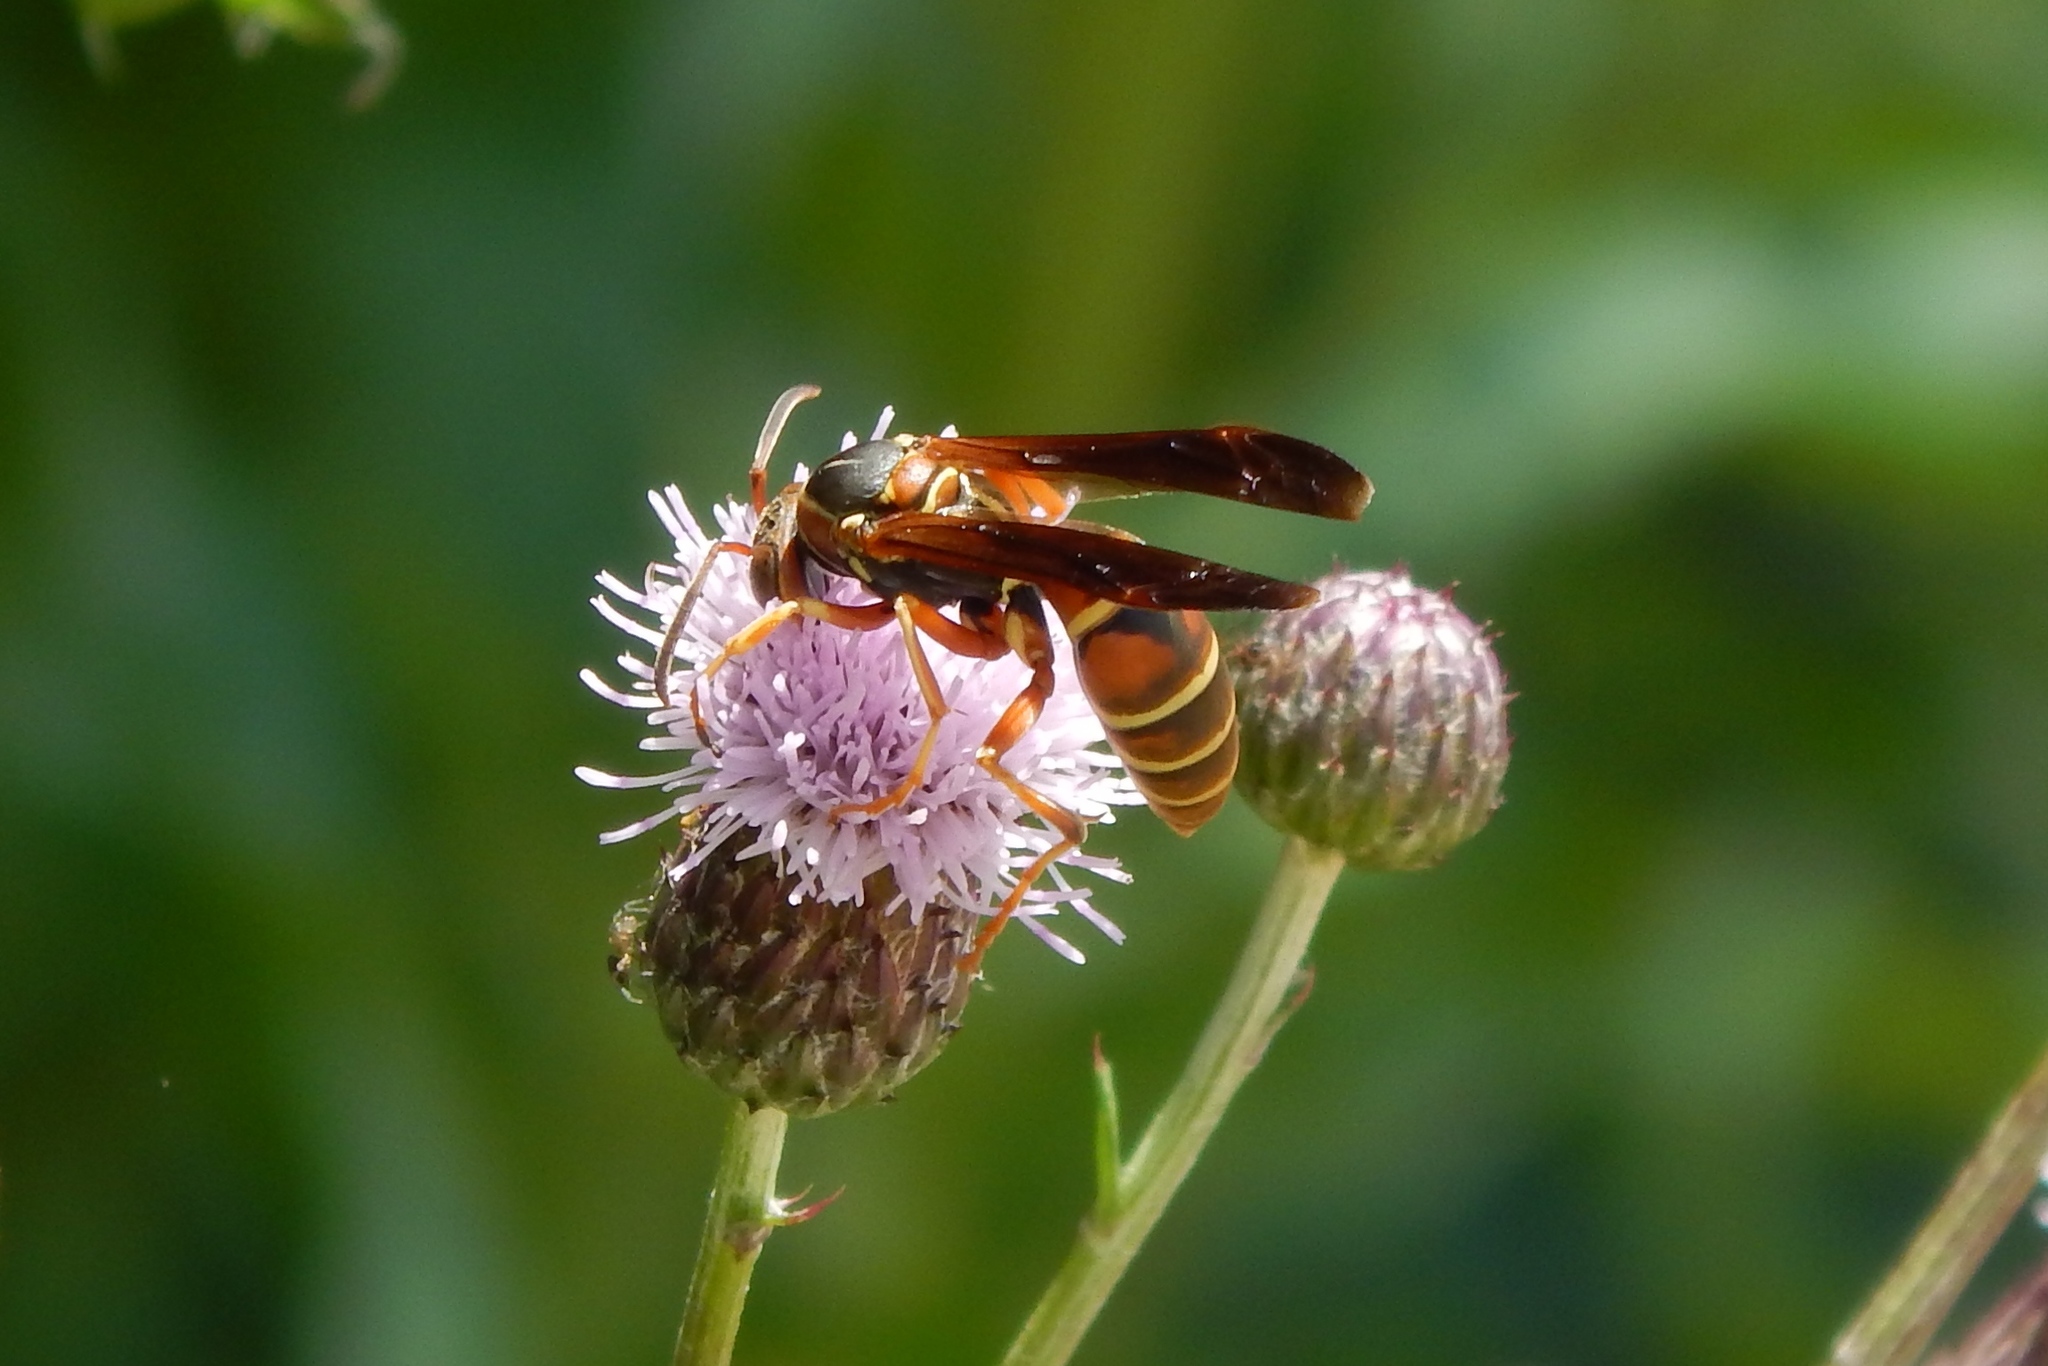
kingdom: Animalia
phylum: Arthropoda
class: Insecta
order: Hymenoptera
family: Eumenidae
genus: Polistes
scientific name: Polistes fuscatus
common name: Dark paper wasp
